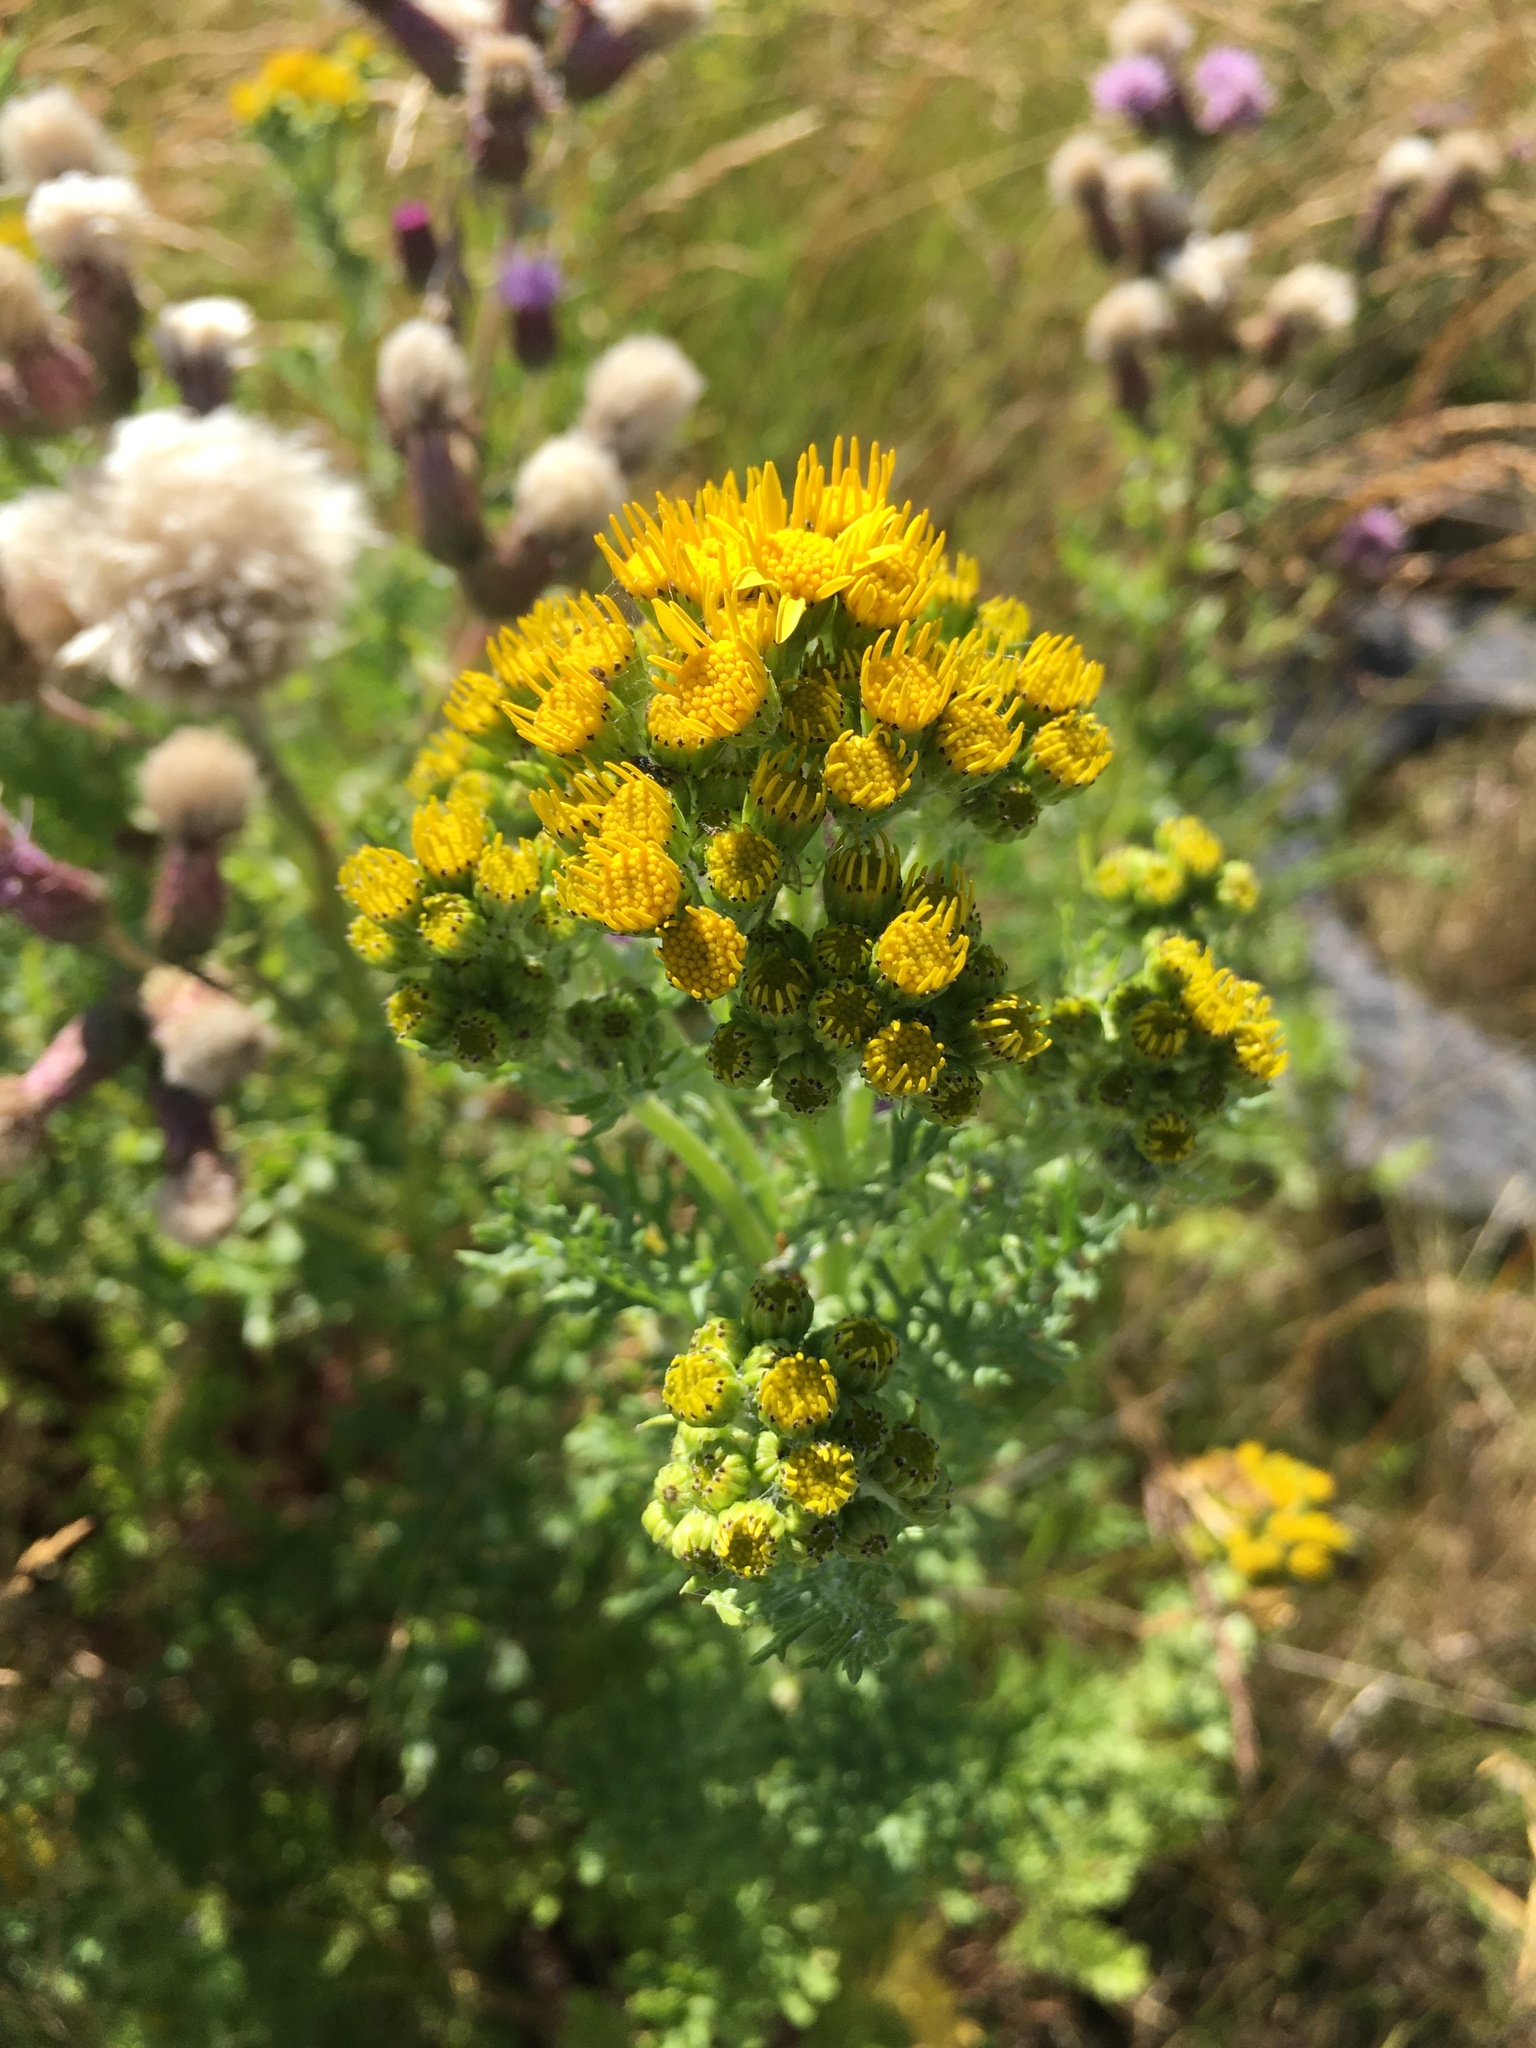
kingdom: Plantae
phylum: Tracheophyta
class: Magnoliopsida
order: Asterales
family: Asteraceae
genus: Jacobaea
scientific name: Jacobaea vulgaris
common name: Stinking willie
